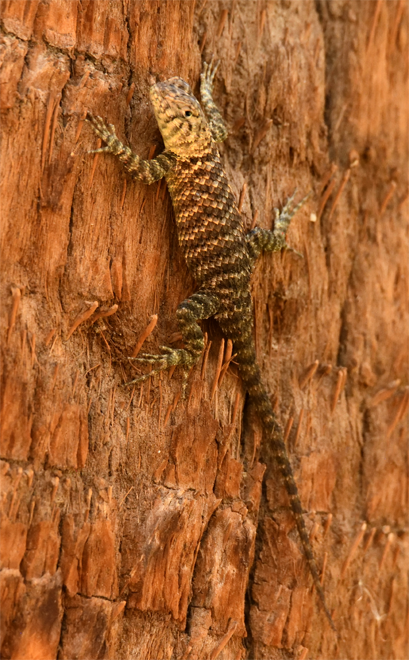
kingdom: Animalia
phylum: Chordata
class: Squamata
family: Phrynosomatidae
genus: Sceloporus
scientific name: Sceloporus orcutti
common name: Granite spiny lizard
